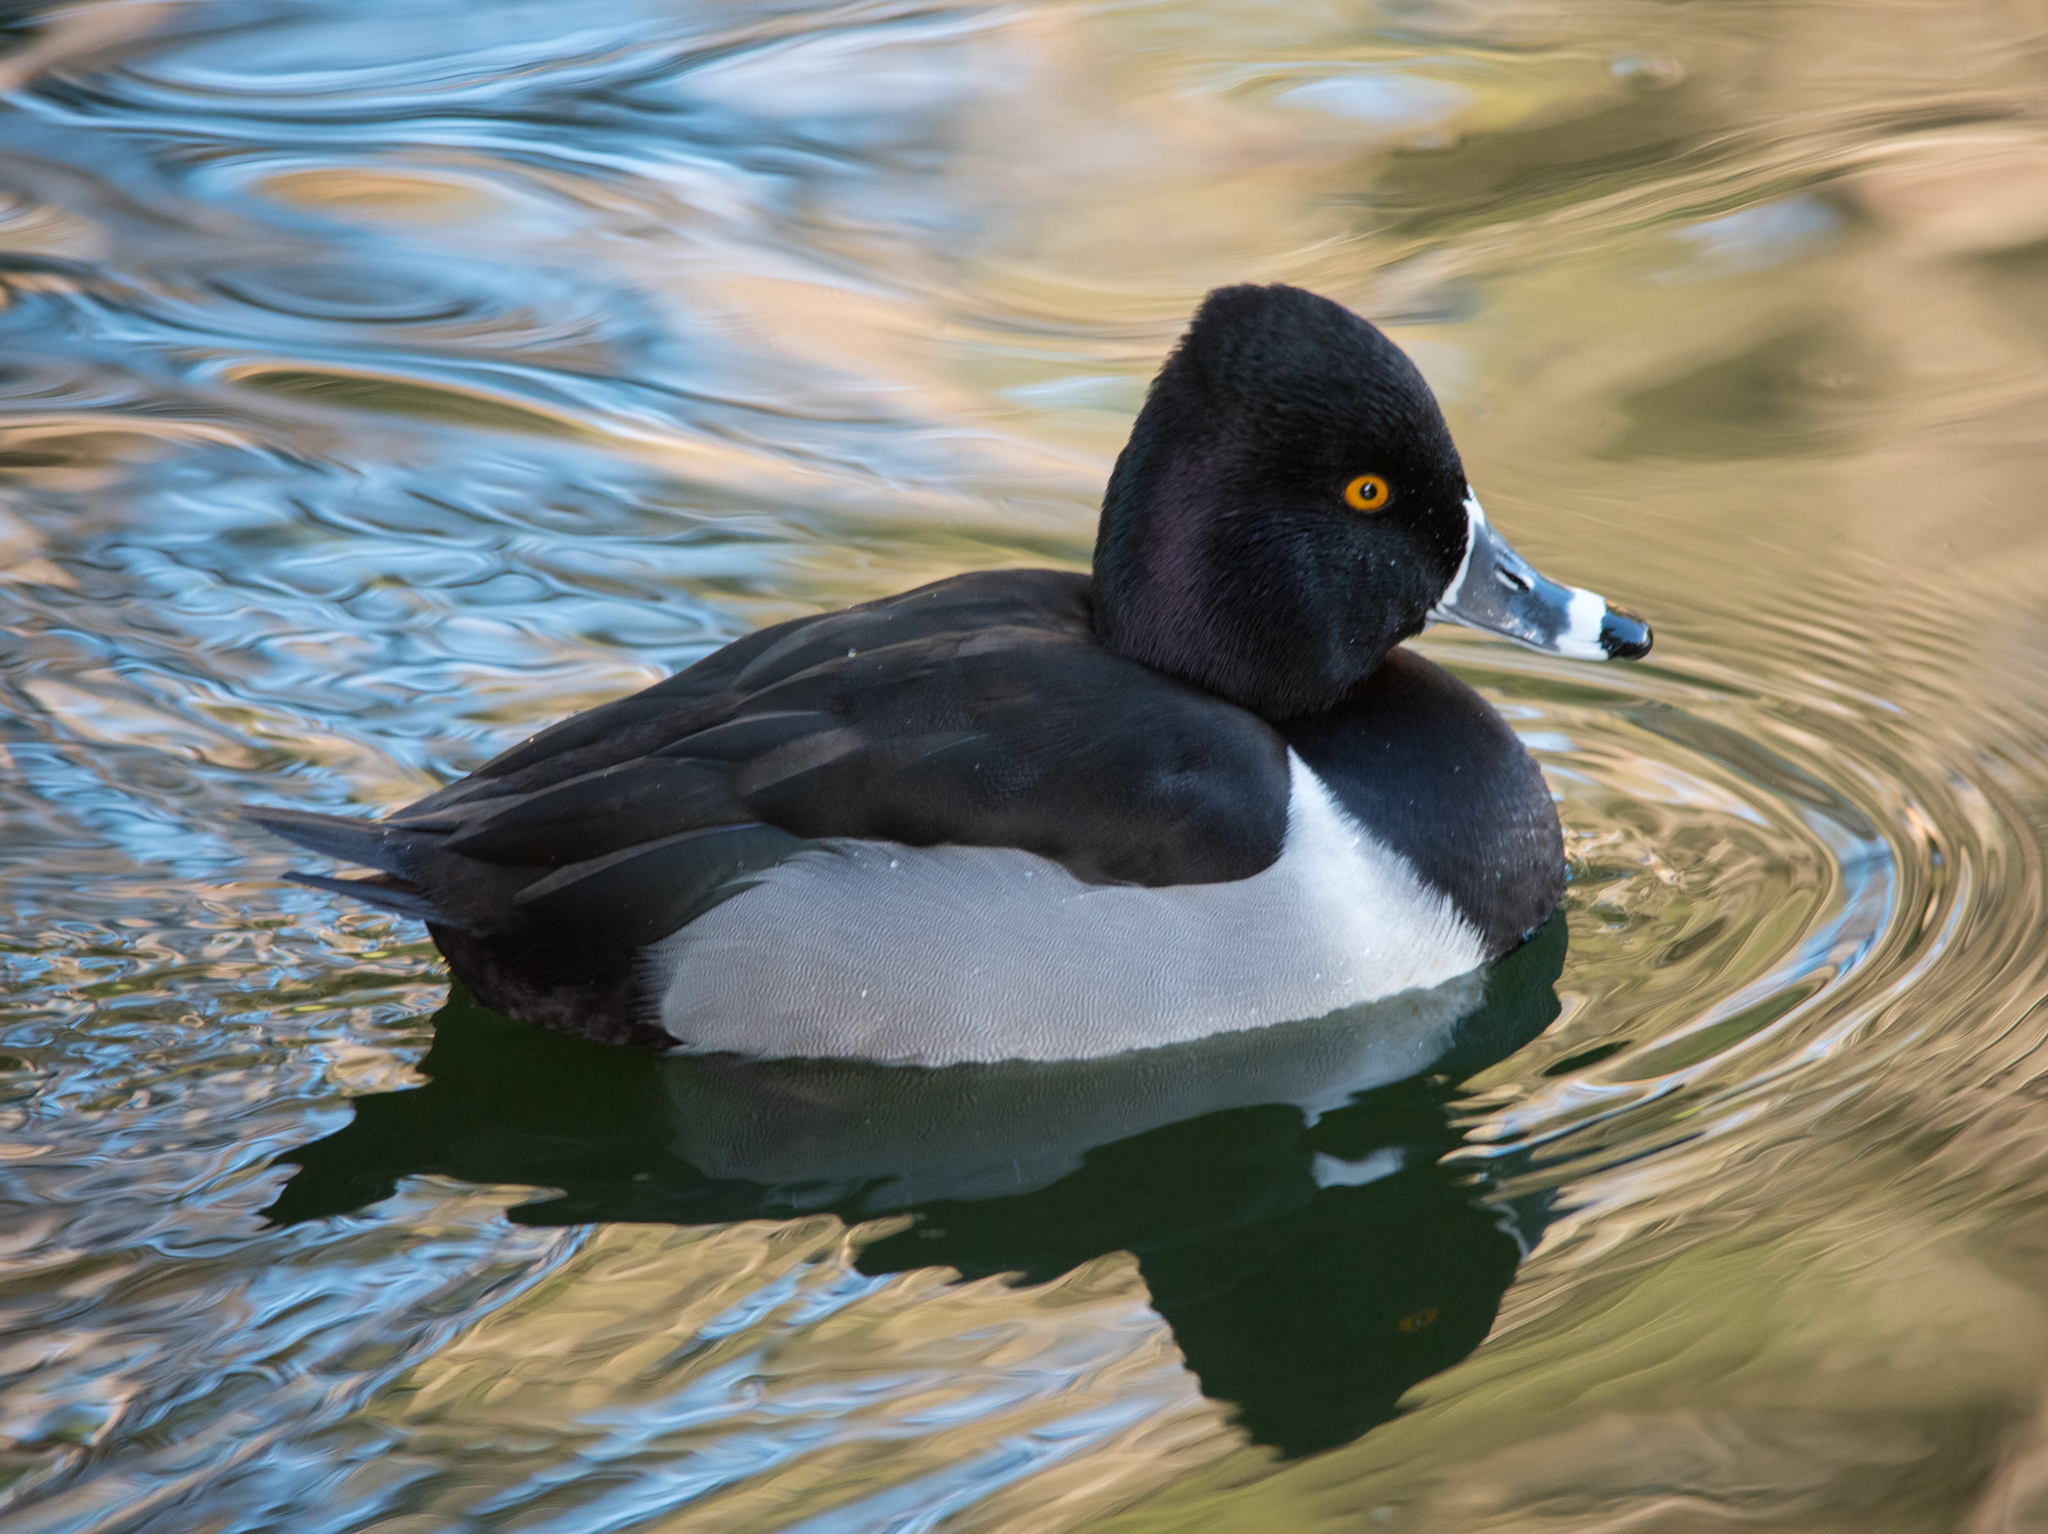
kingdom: Animalia
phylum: Chordata
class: Aves
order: Anseriformes
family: Anatidae
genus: Aythya
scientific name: Aythya collaris
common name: Ring-necked duck
